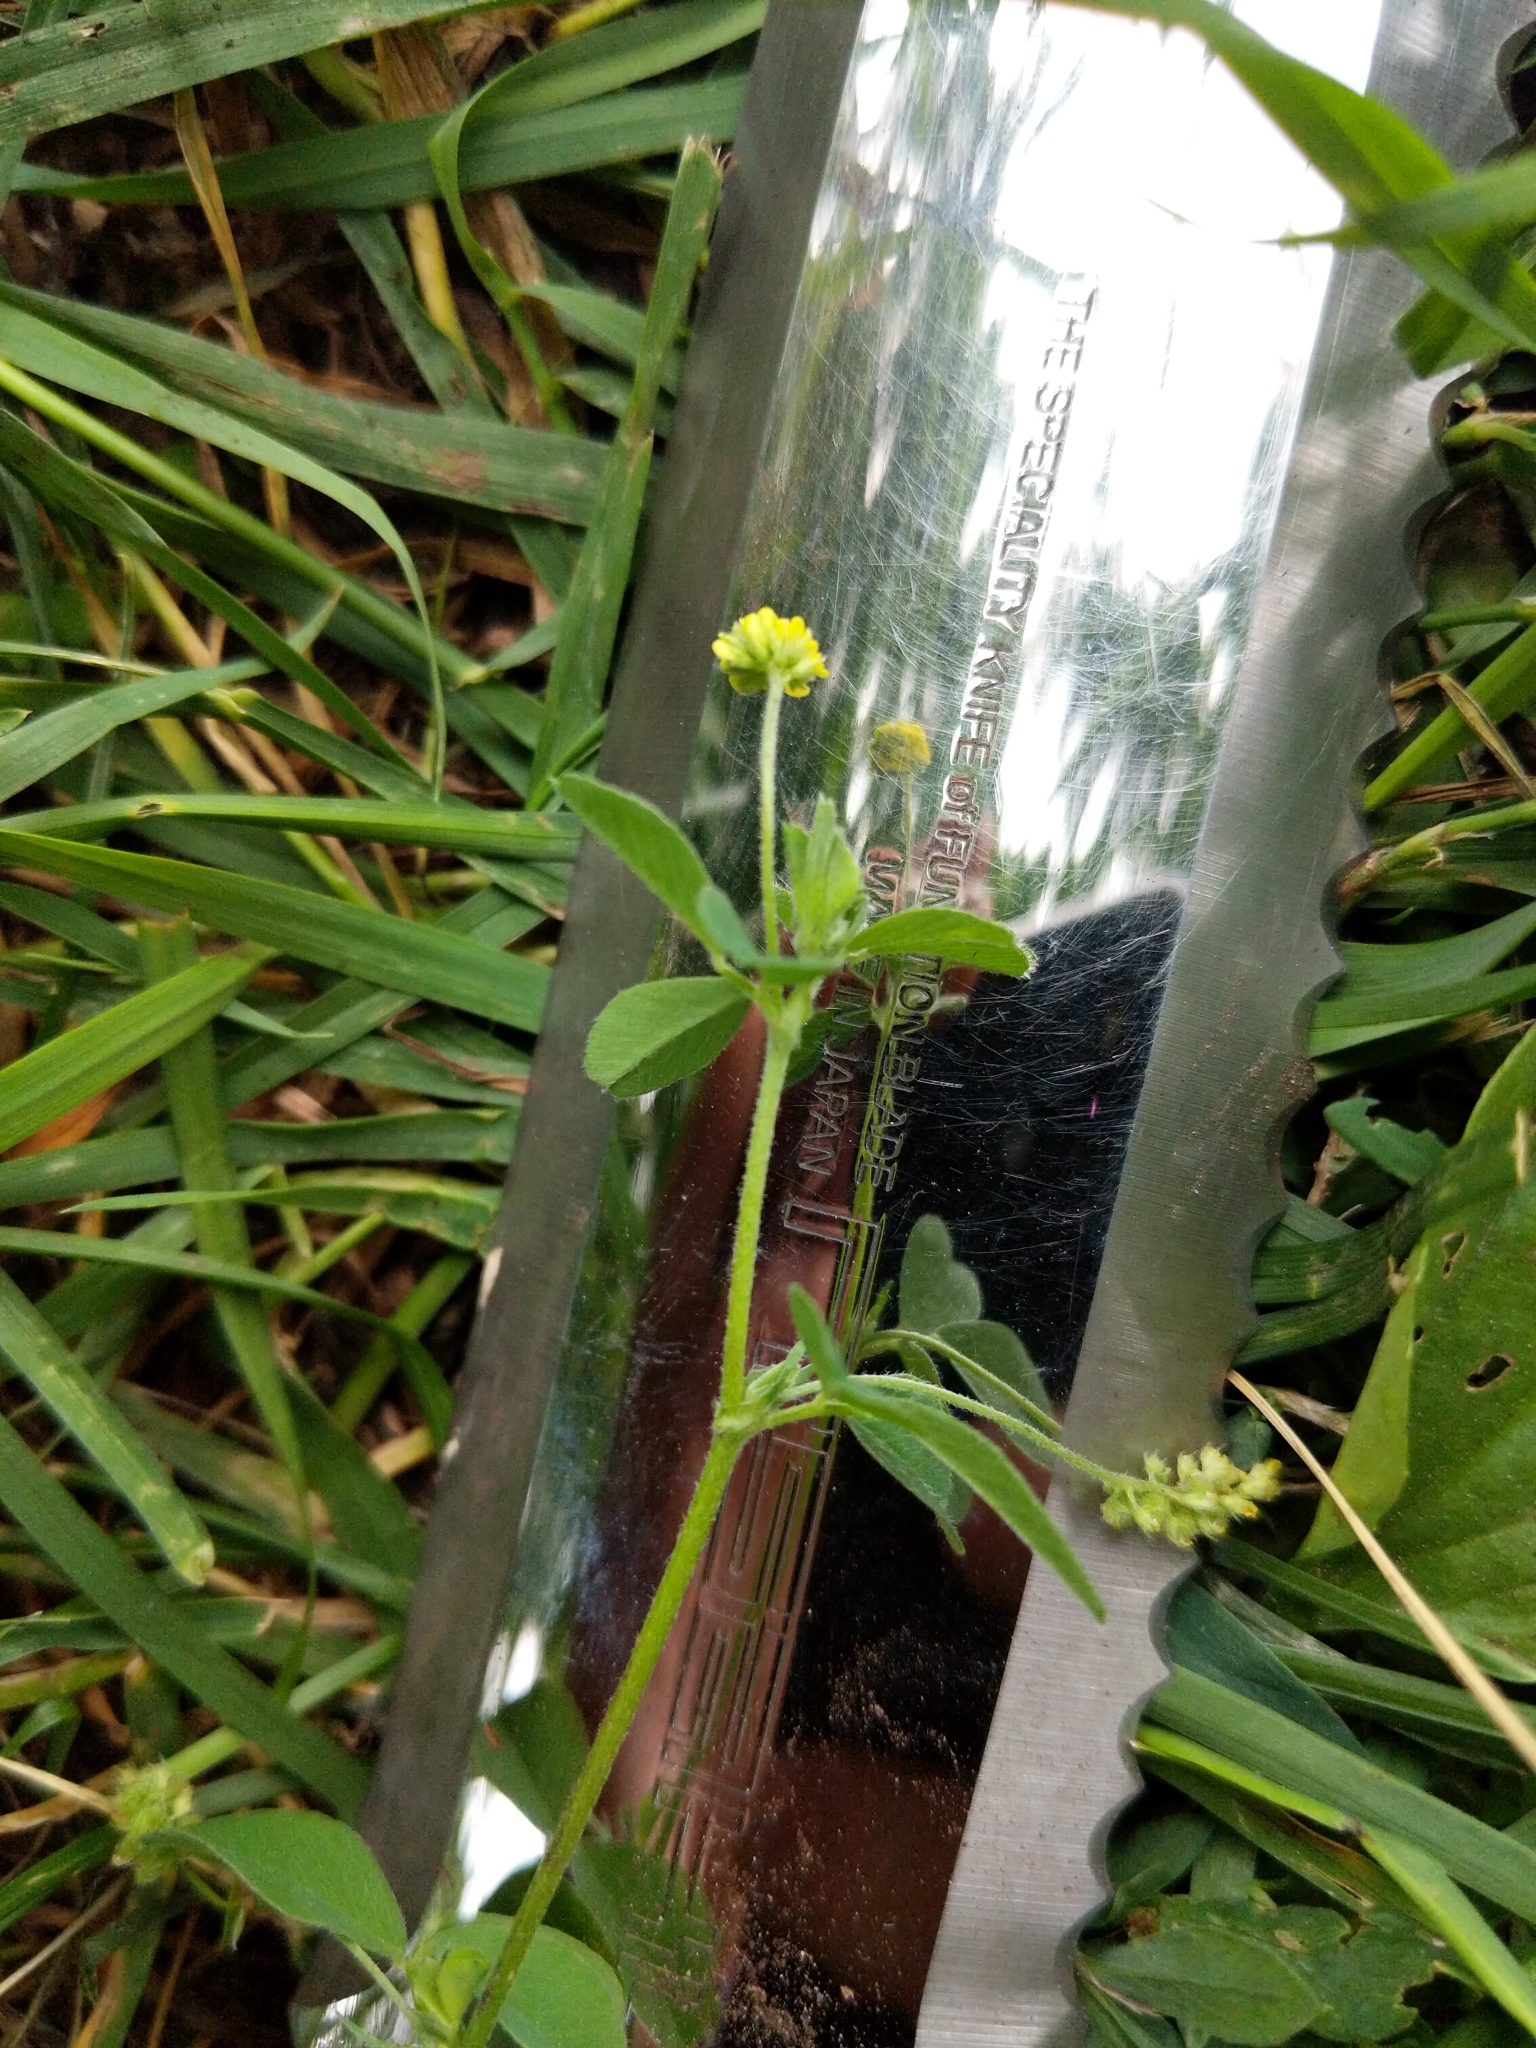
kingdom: Plantae
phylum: Tracheophyta
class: Magnoliopsida
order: Fabales
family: Fabaceae
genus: Medicago
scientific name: Medicago lupulina
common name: Black medick
